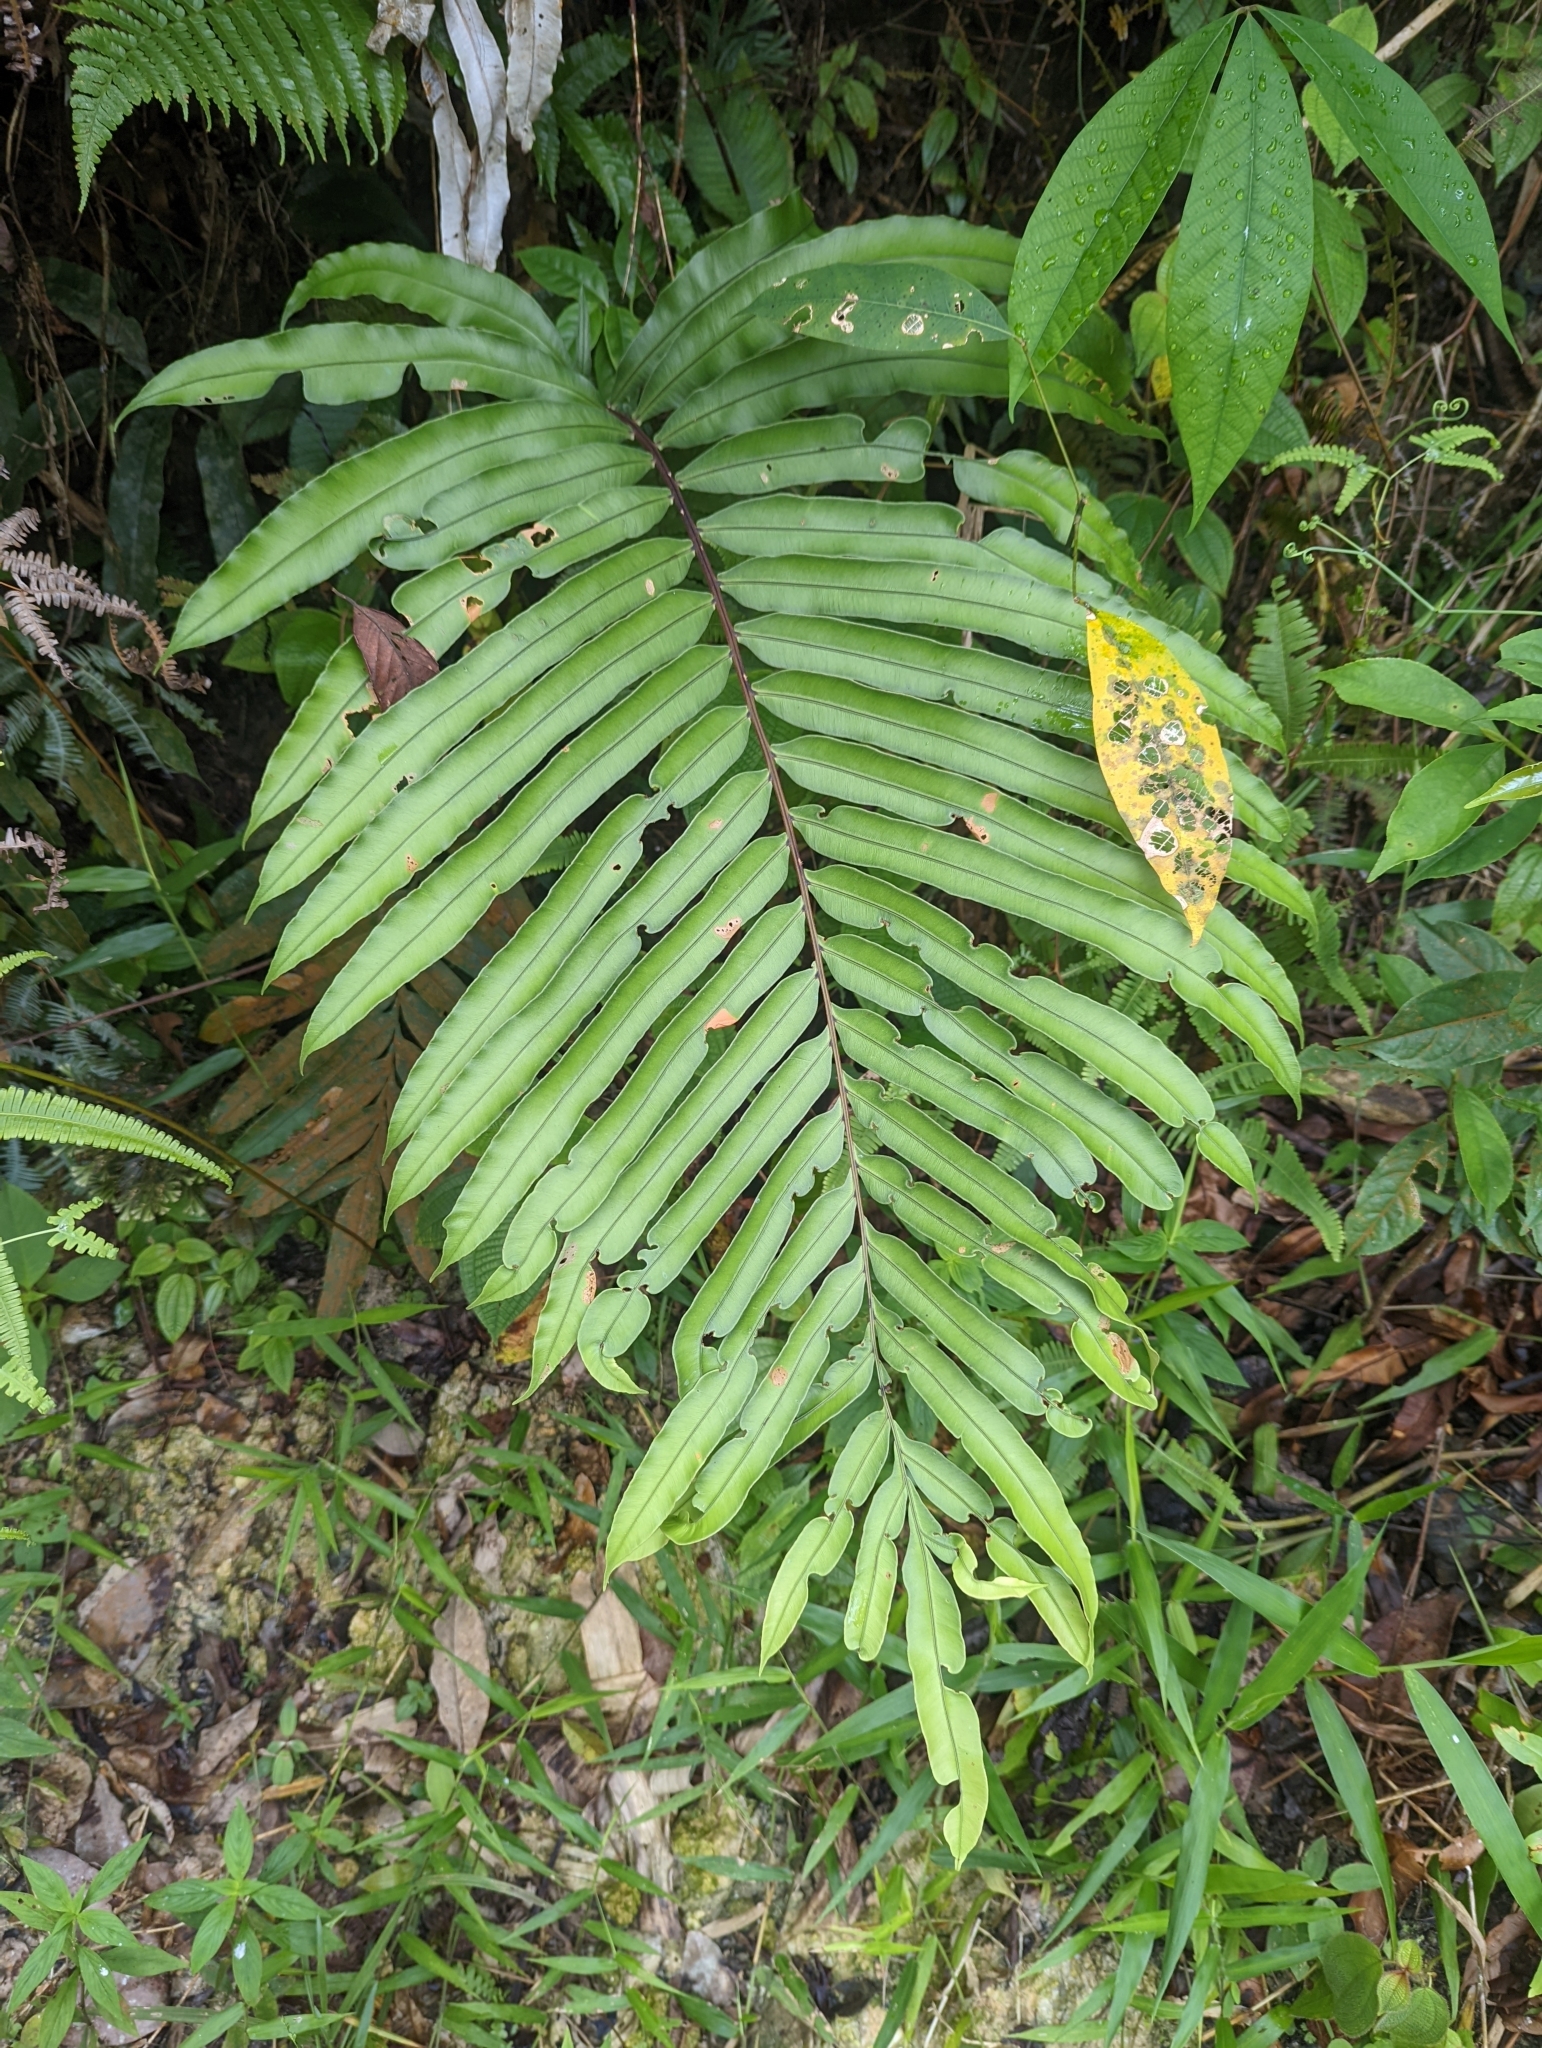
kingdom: Plantae
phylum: Tracheophyta
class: Polypodiopsida
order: Polypodiales
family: Blechnaceae
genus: Blechnopsis
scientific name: Blechnopsis finlaysoniana
